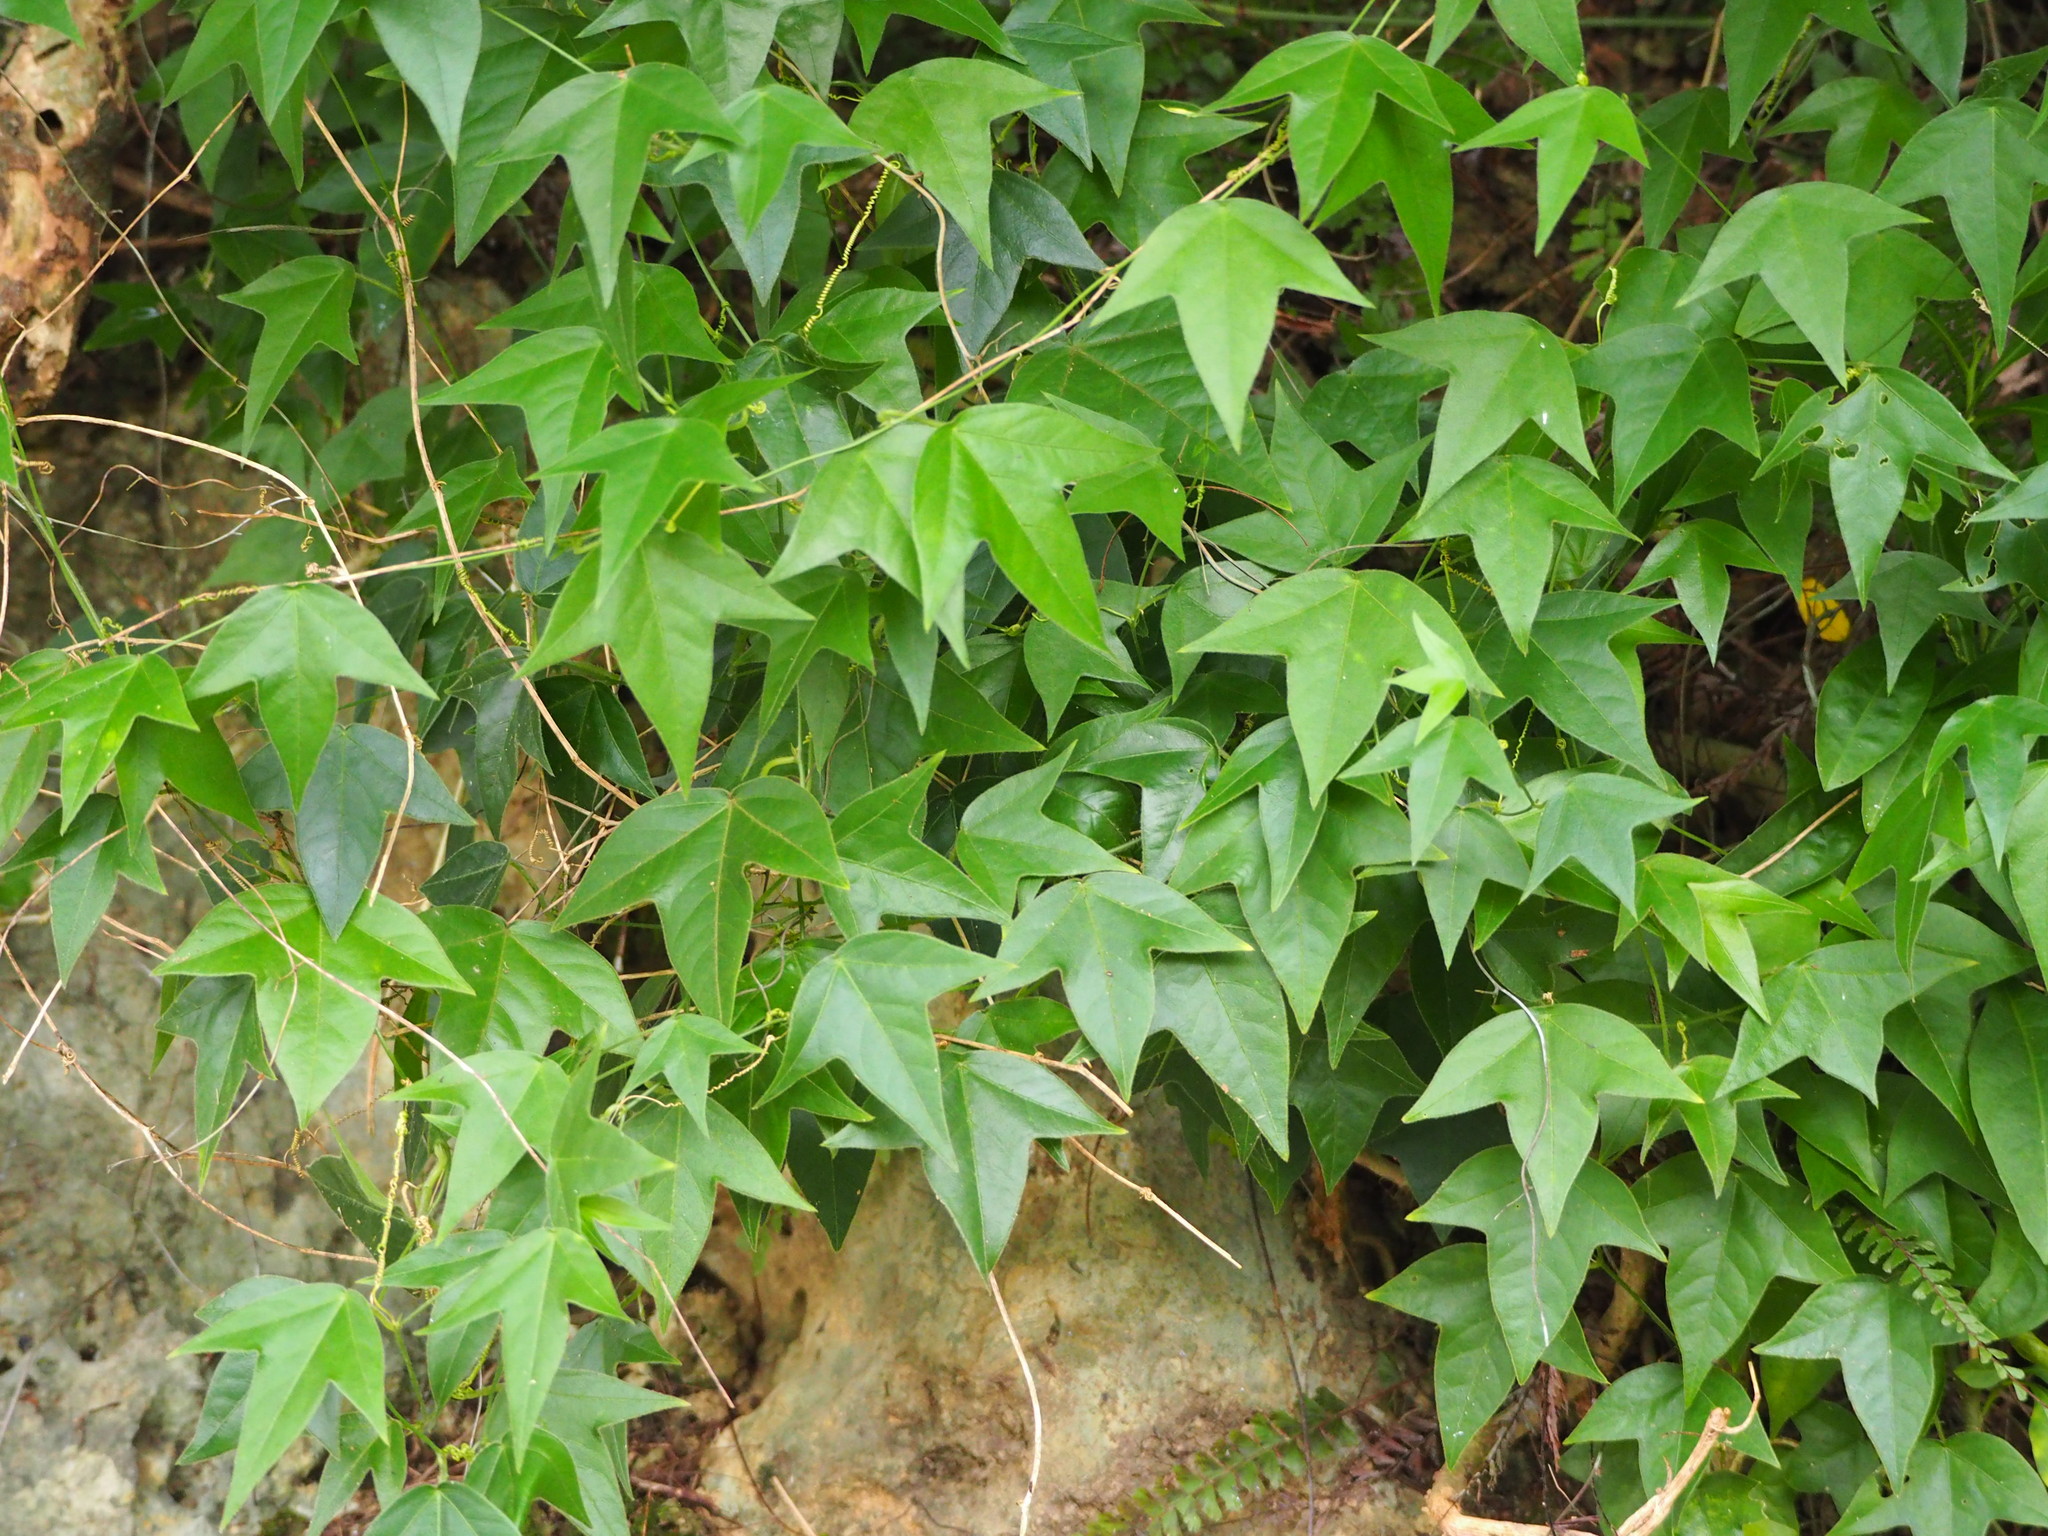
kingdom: Plantae
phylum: Tracheophyta
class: Magnoliopsida
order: Malpighiales
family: Passifloraceae
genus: Passiflora
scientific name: Passiflora suberosa
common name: Wild passionfruit
